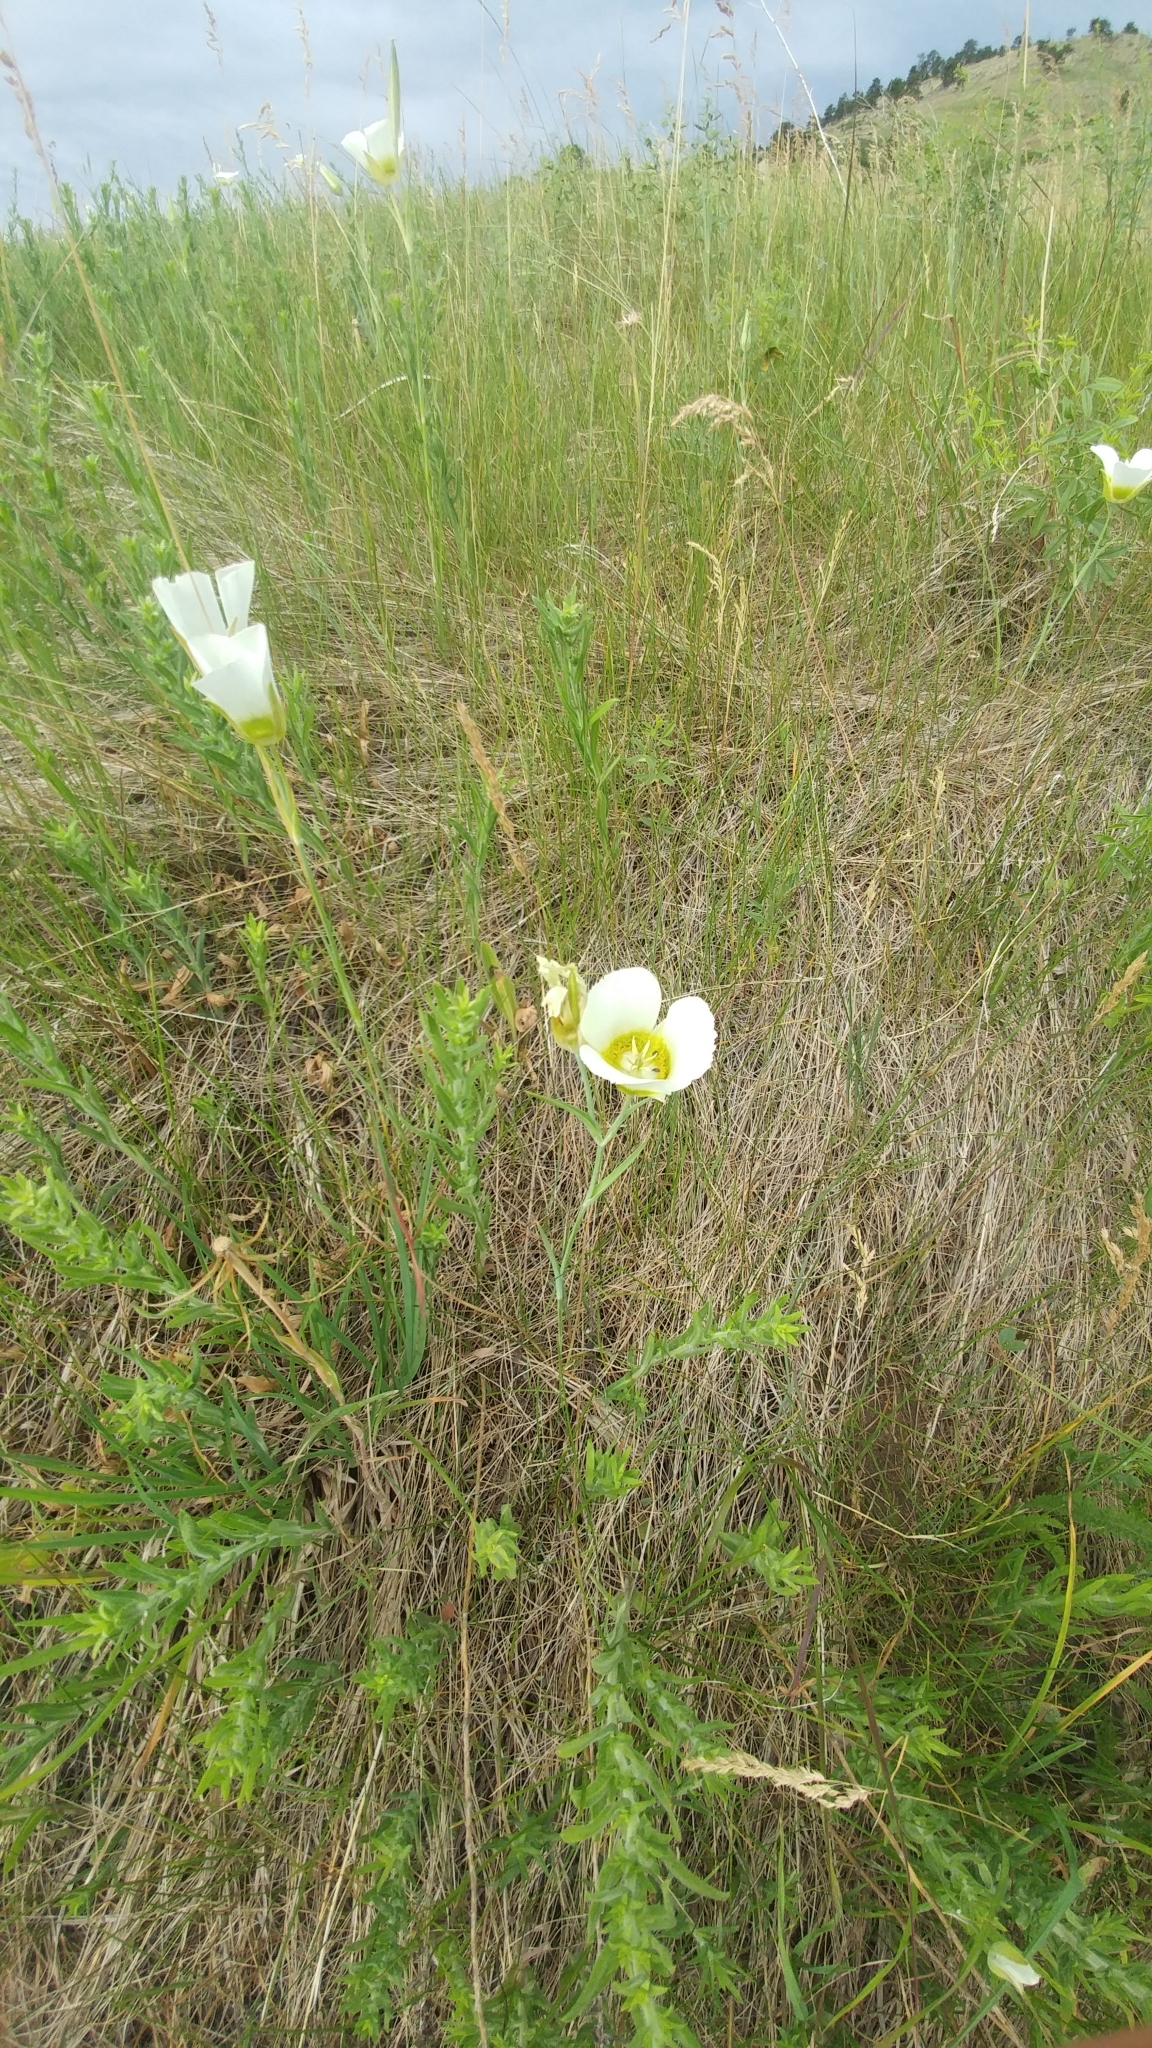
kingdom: Plantae
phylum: Tracheophyta
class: Liliopsida
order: Liliales
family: Liliaceae
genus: Calochortus
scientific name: Calochortus gunnisonii
